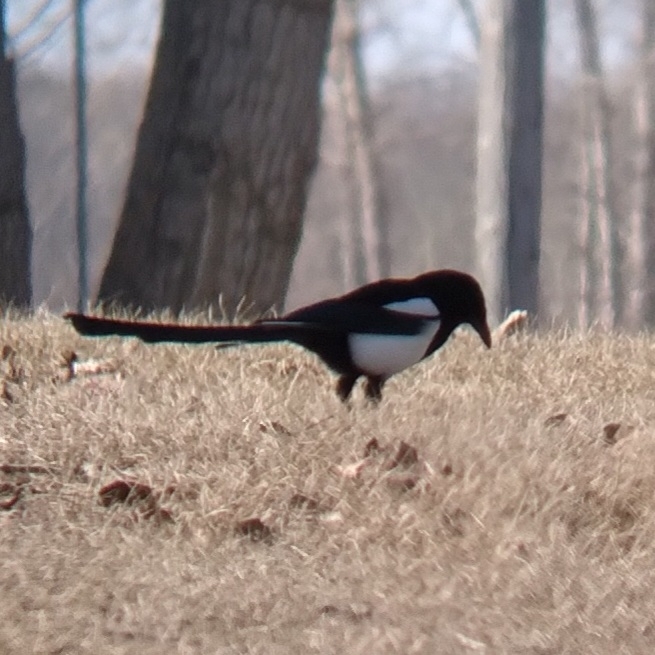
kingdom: Animalia
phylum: Chordata
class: Aves
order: Passeriformes
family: Corvidae
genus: Pica
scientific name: Pica hudsonia
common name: Black-billed magpie
